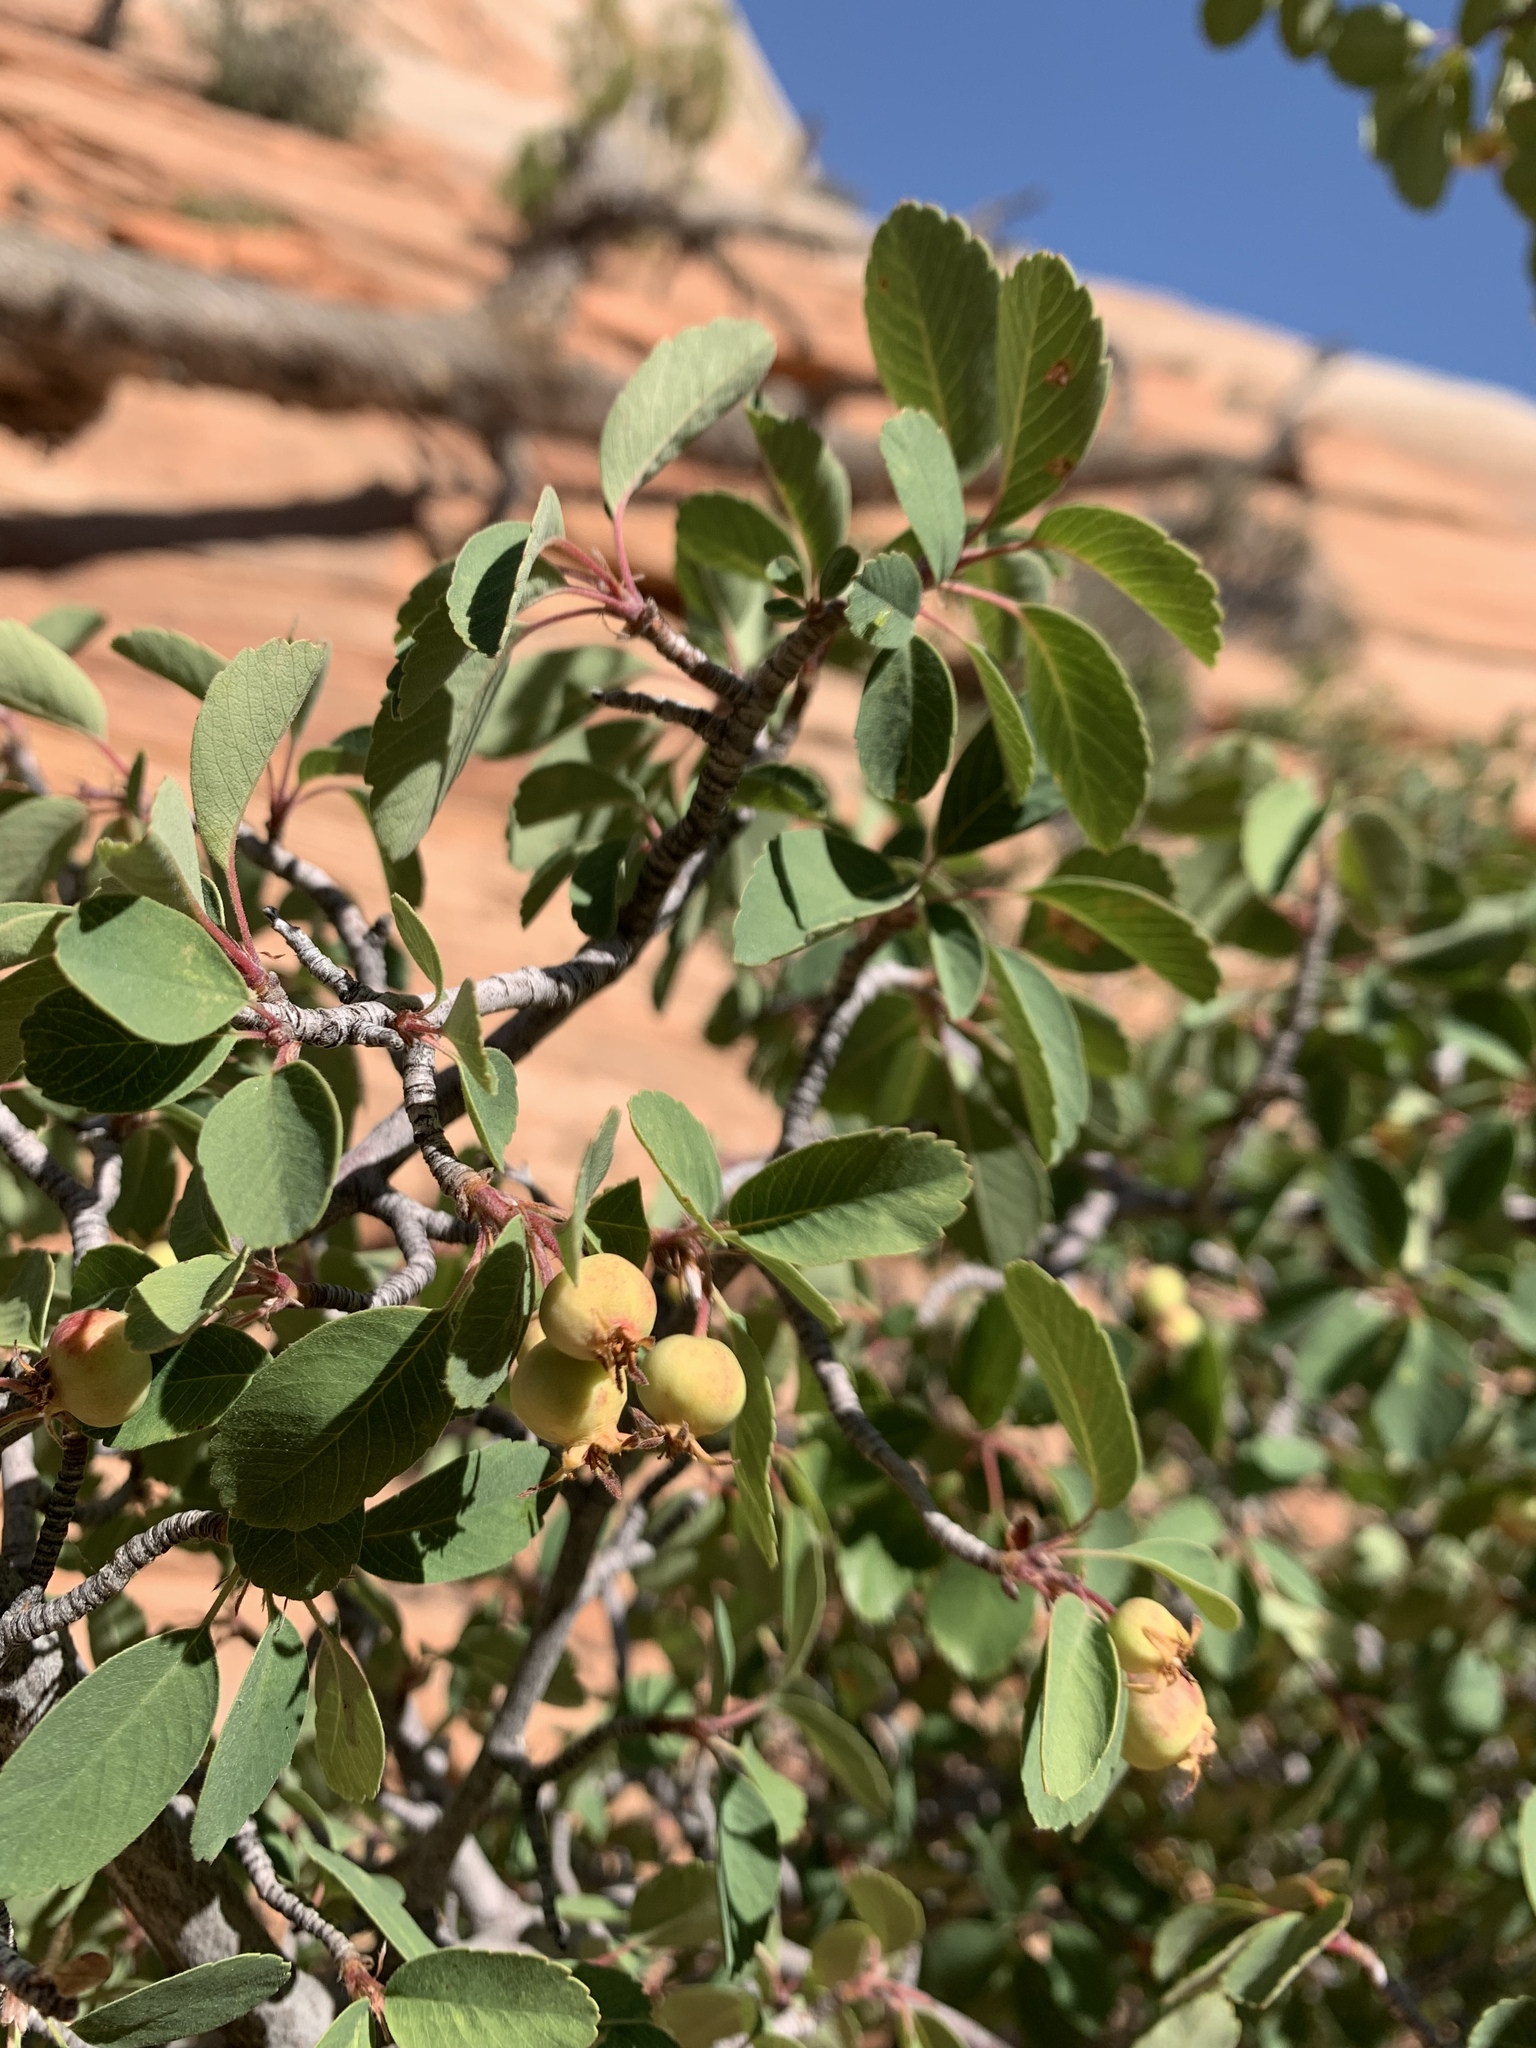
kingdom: Plantae
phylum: Tracheophyta
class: Magnoliopsida
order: Rosales
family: Rosaceae
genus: Amelanchier
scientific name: Amelanchier utahensis
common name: Utah serviceberry
